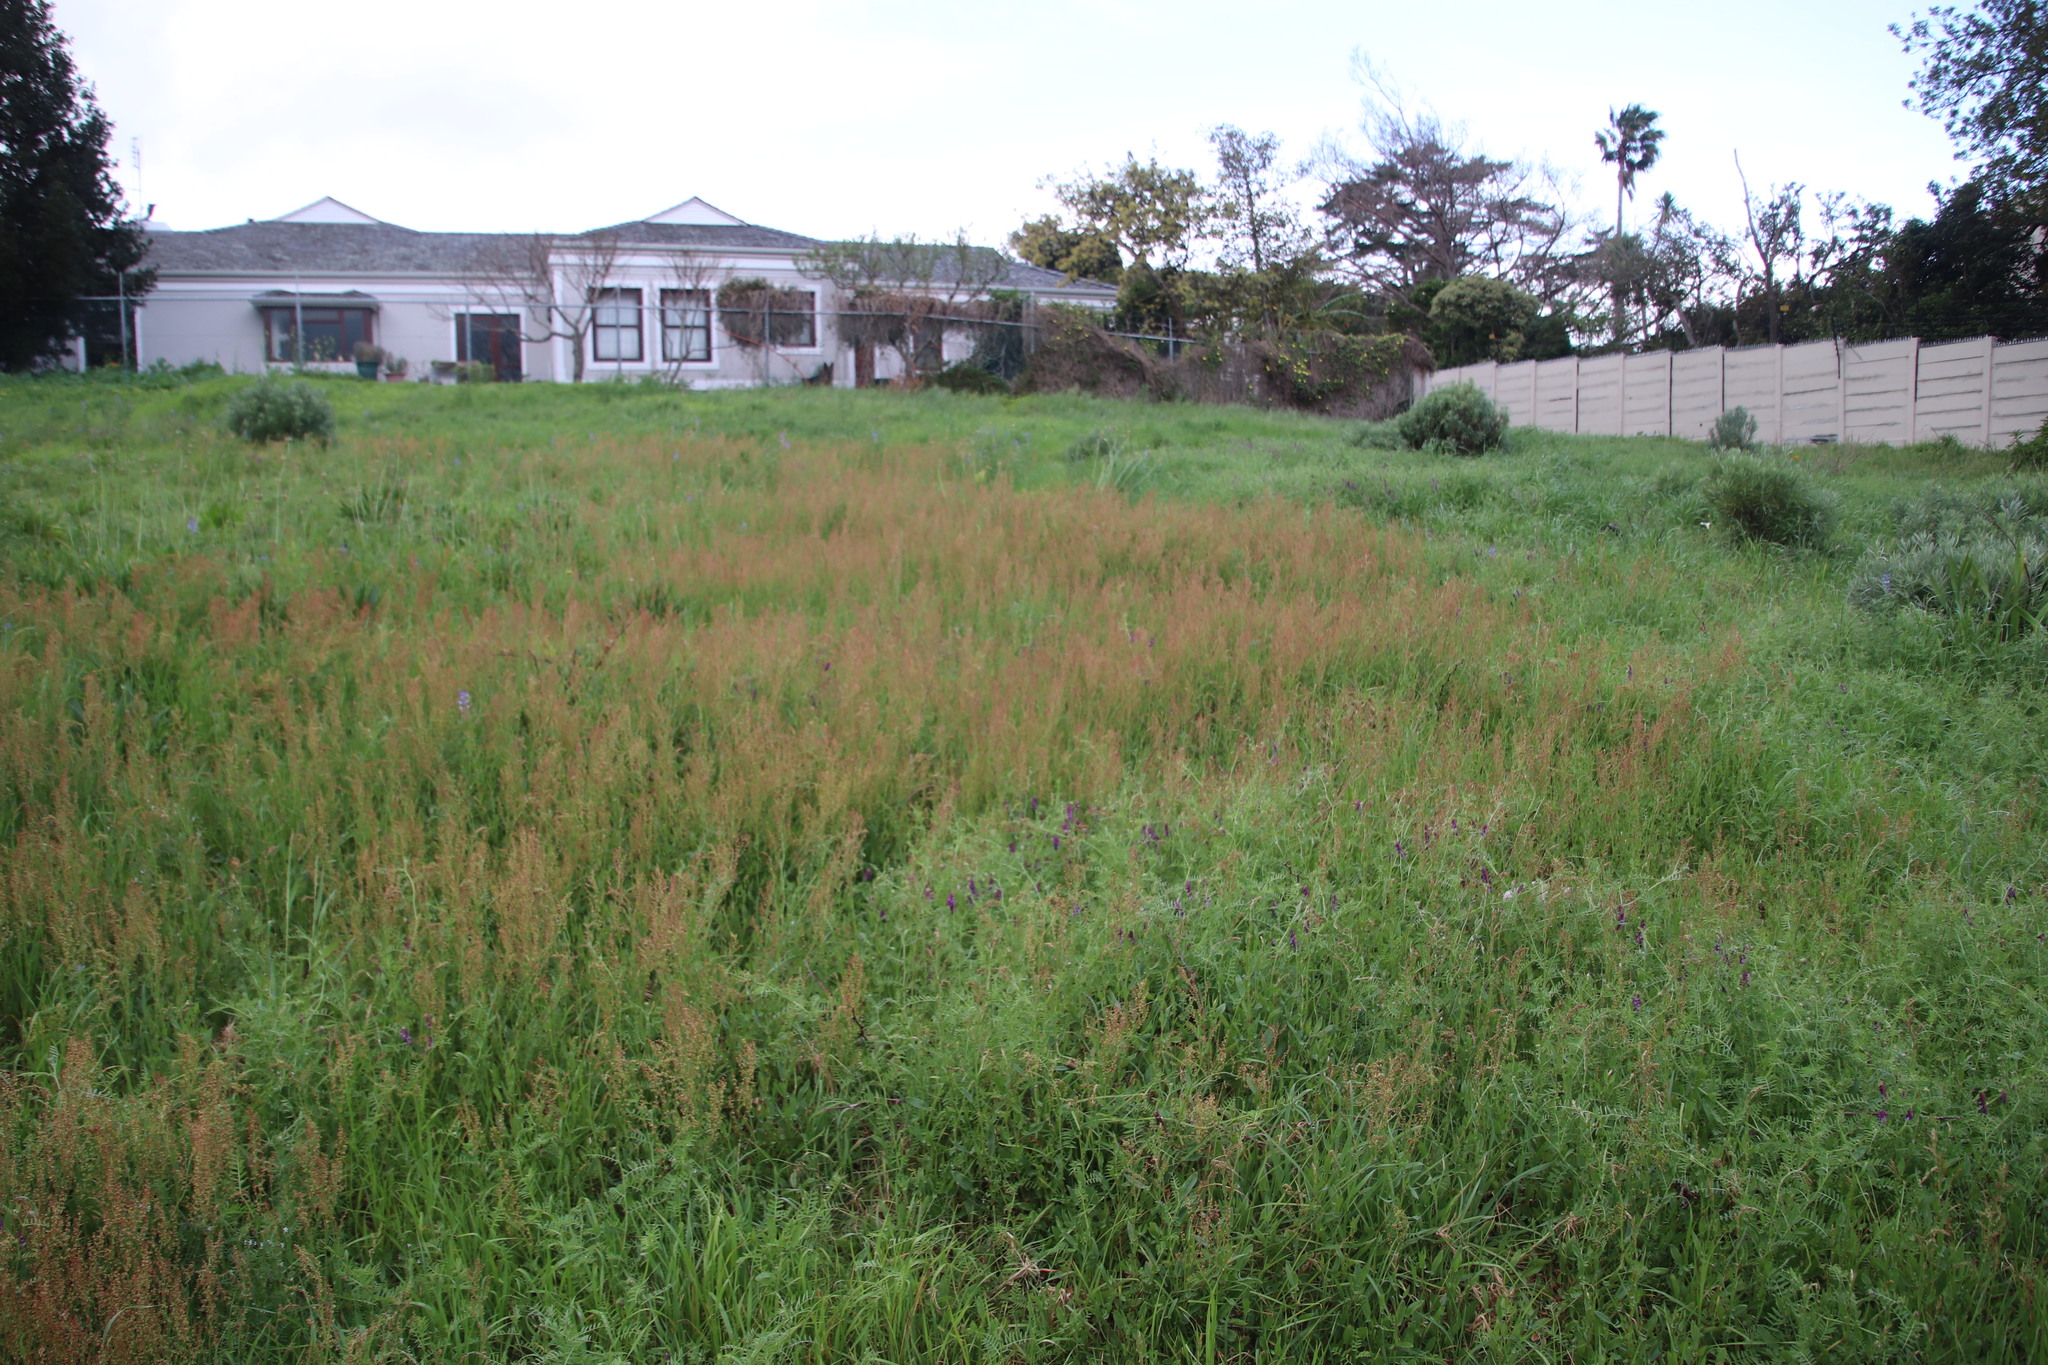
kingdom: Plantae
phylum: Tracheophyta
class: Magnoliopsida
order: Caryophyllales
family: Polygonaceae
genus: Rumex
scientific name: Rumex acetosella
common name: Common sheep sorrel
